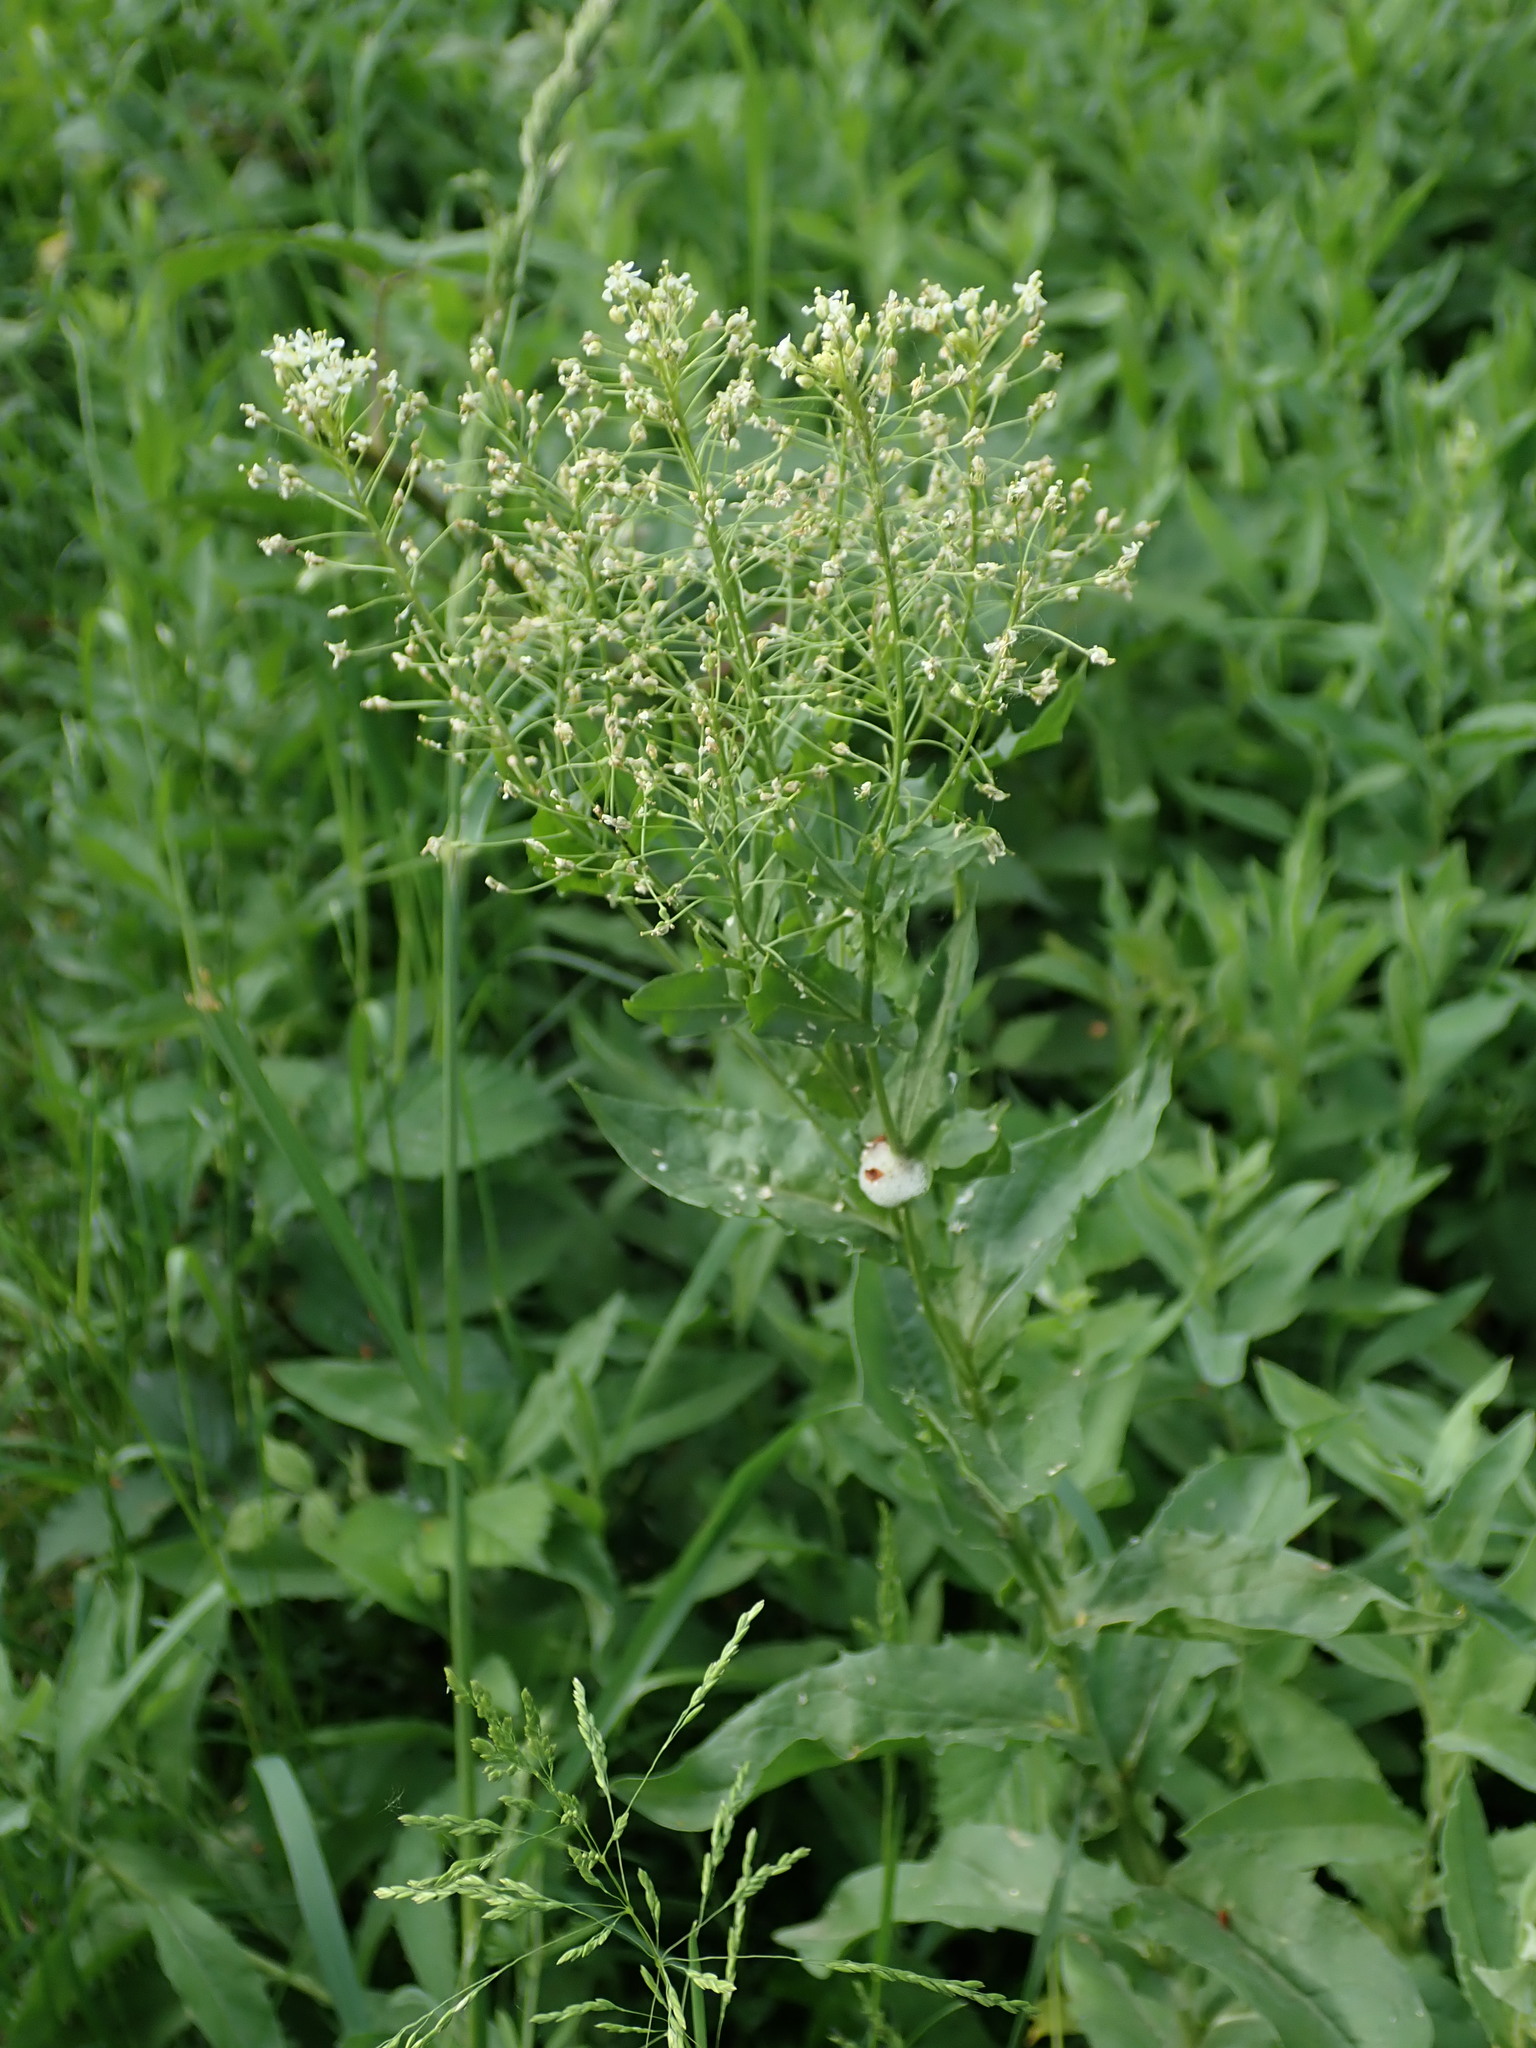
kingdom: Plantae
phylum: Tracheophyta
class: Magnoliopsida
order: Brassicales
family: Brassicaceae
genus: Lepidium
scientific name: Lepidium draba
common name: Hoary cress
